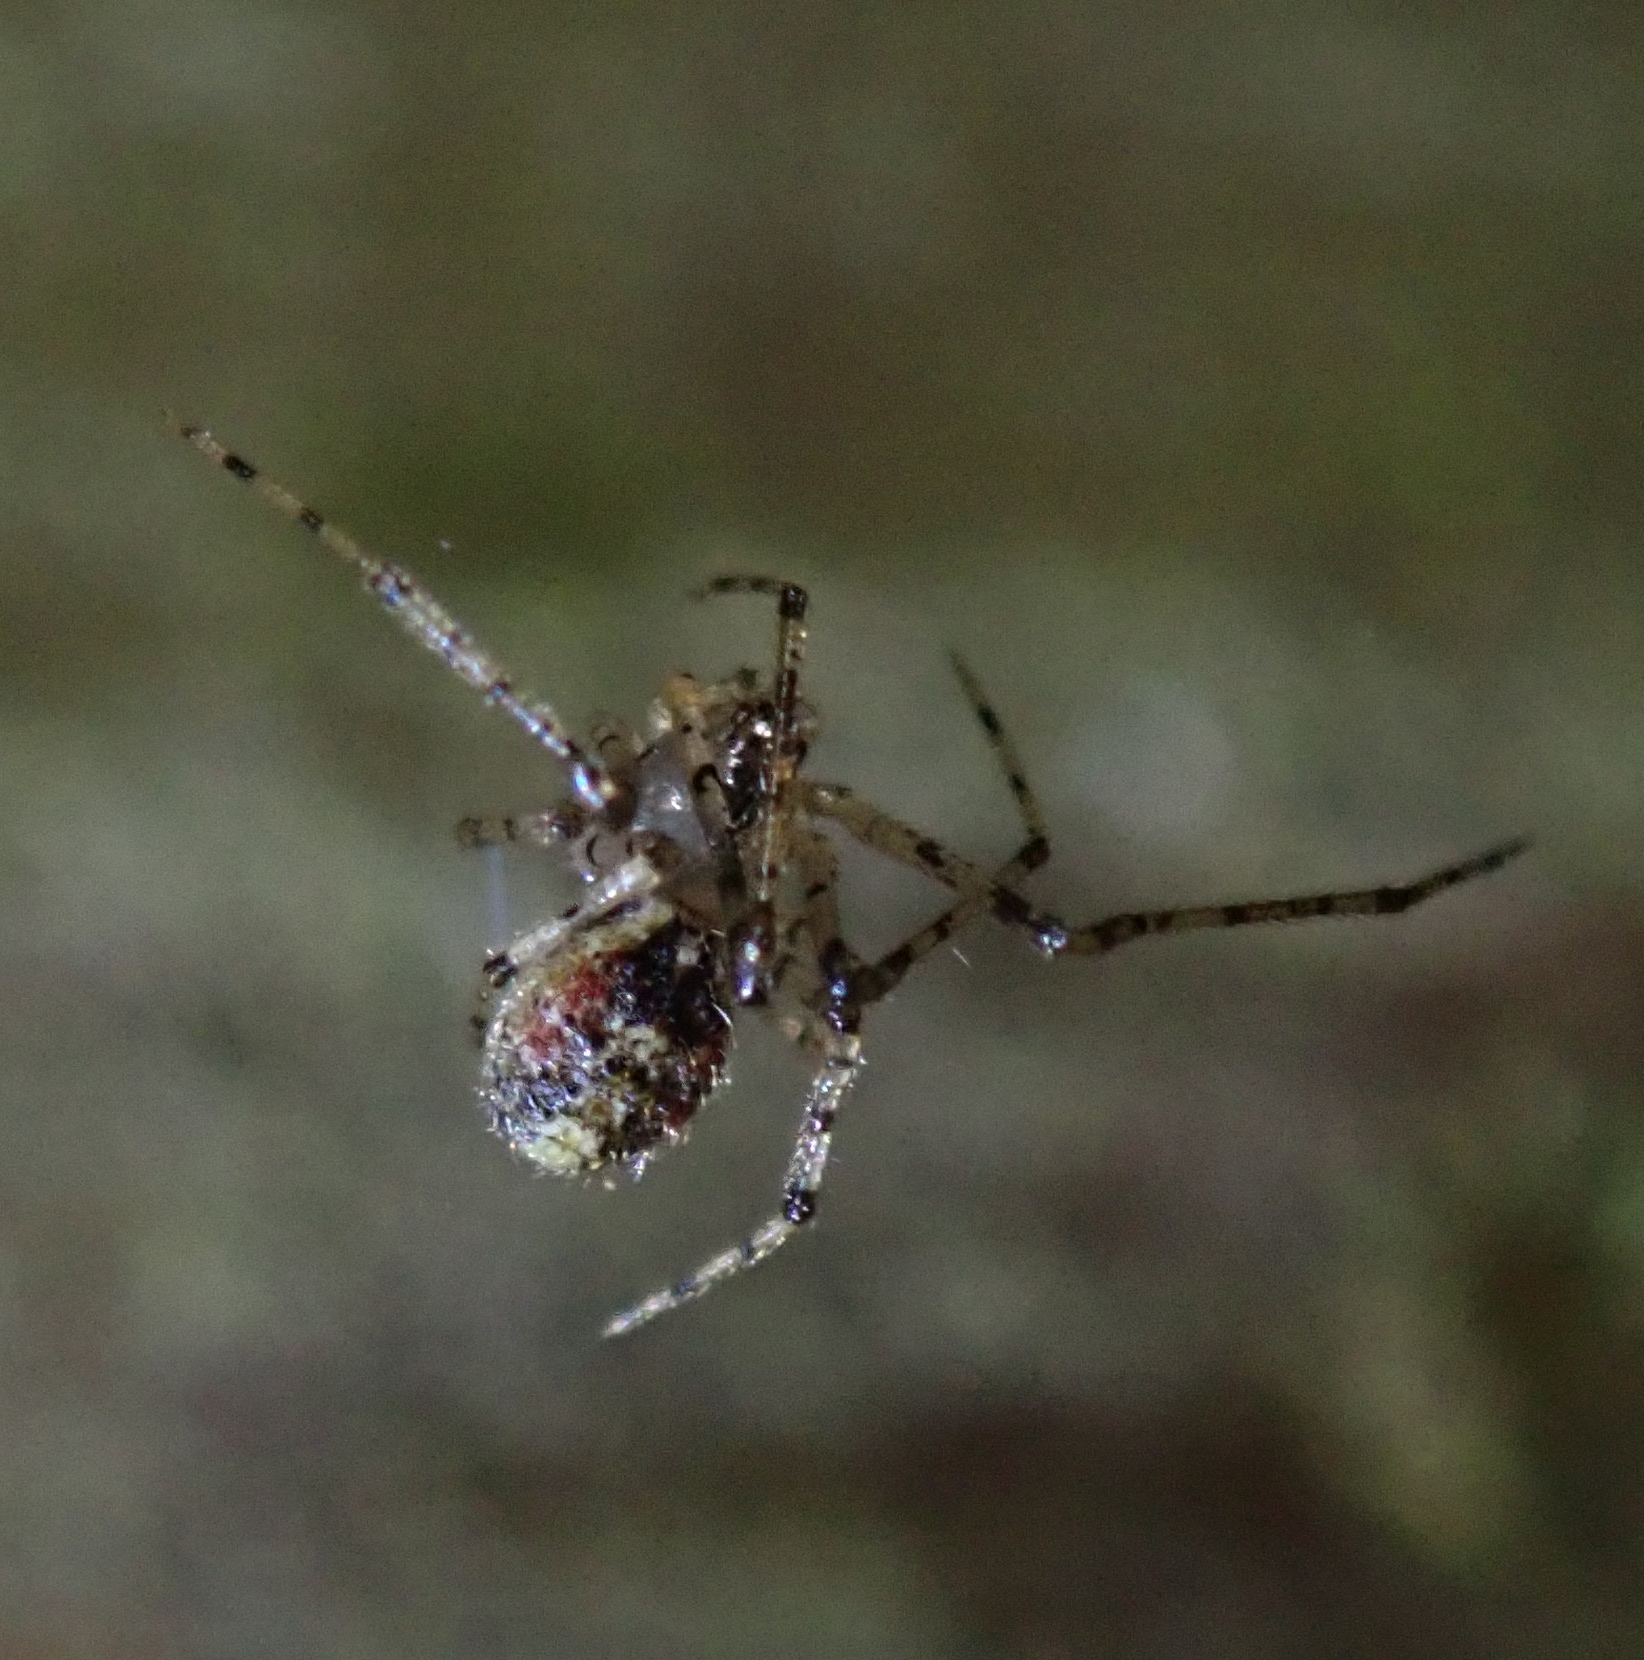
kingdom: Animalia
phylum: Arthropoda
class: Arachnida
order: Araneae
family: Theridiidae
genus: Platnickina
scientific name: Platnickina tincta
